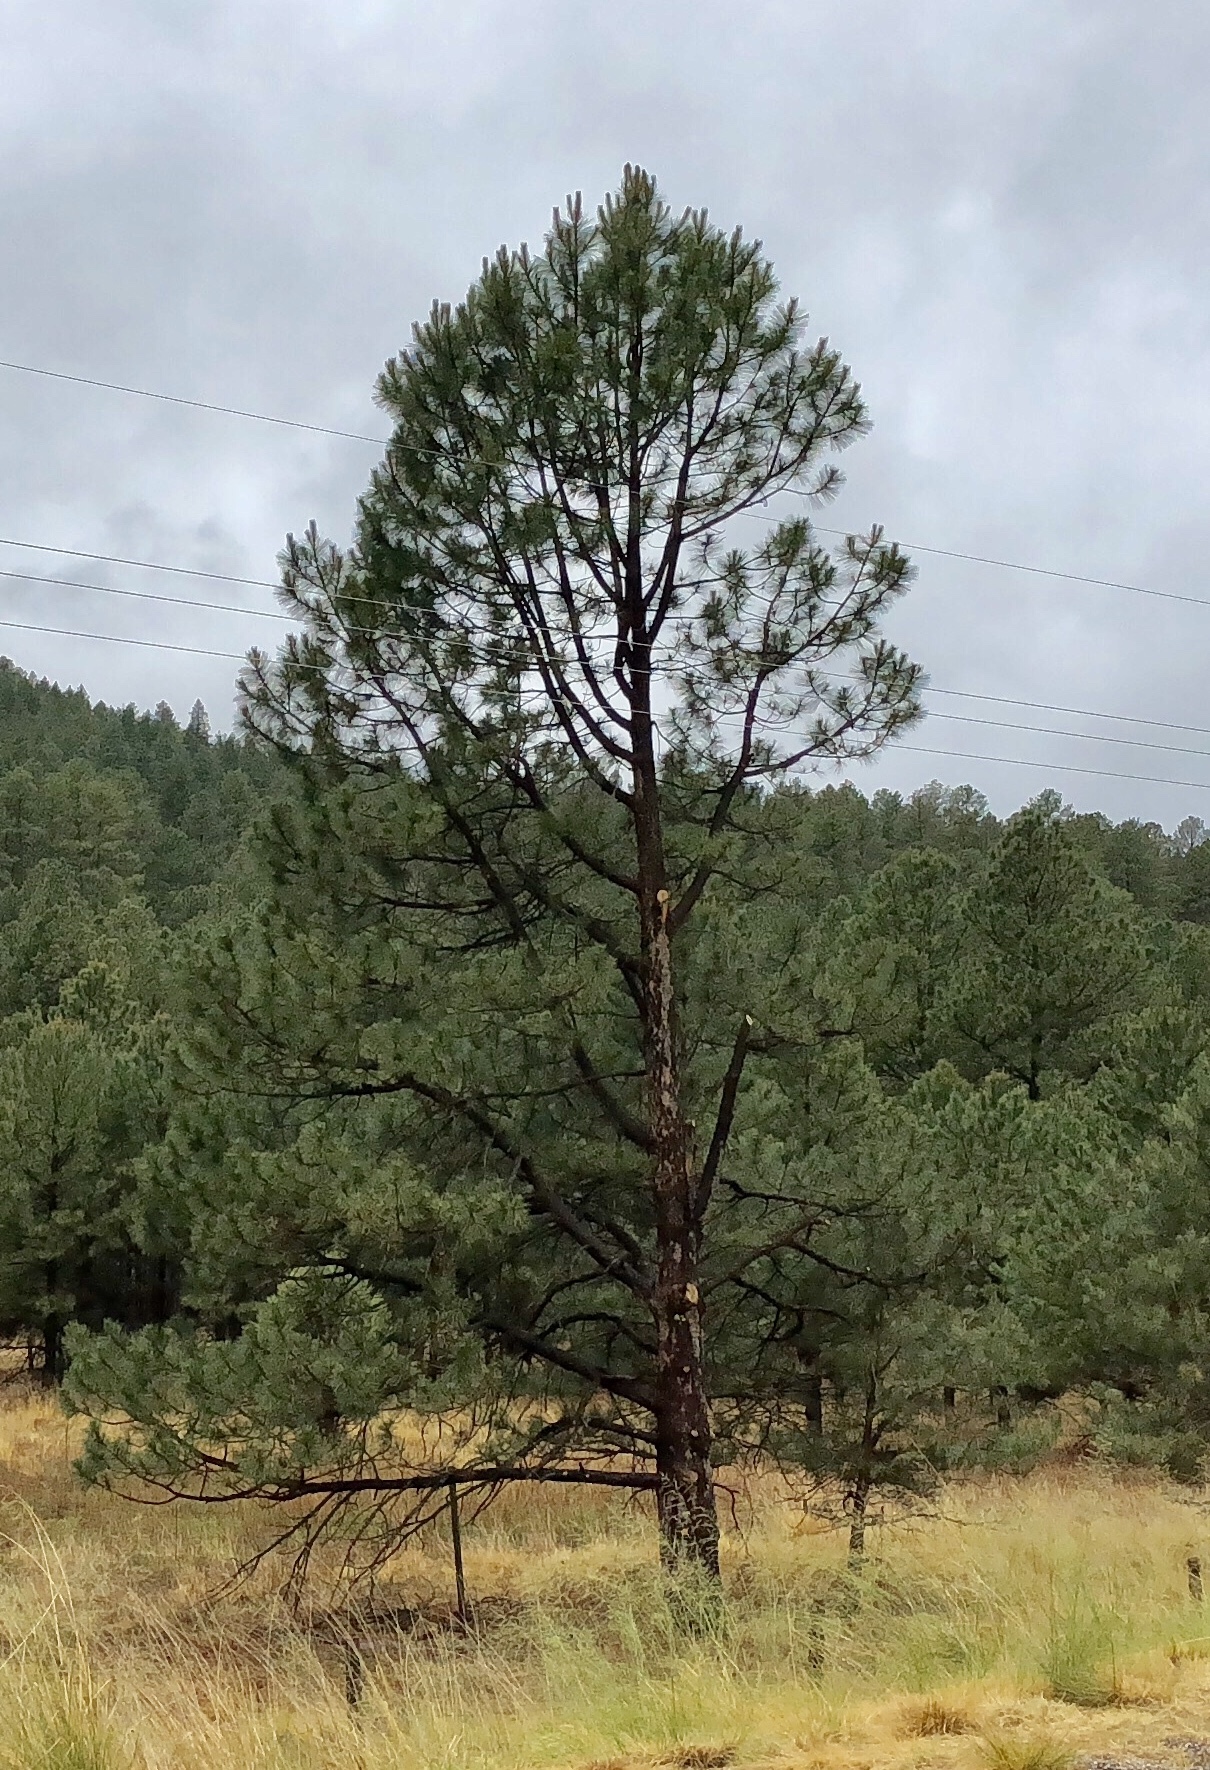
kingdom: Plantae
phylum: Tracheophyta
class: Pinopsida
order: Pinales
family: Pinaceae
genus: Pinus
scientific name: Pinus ponderosa
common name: Western yellow-pine
